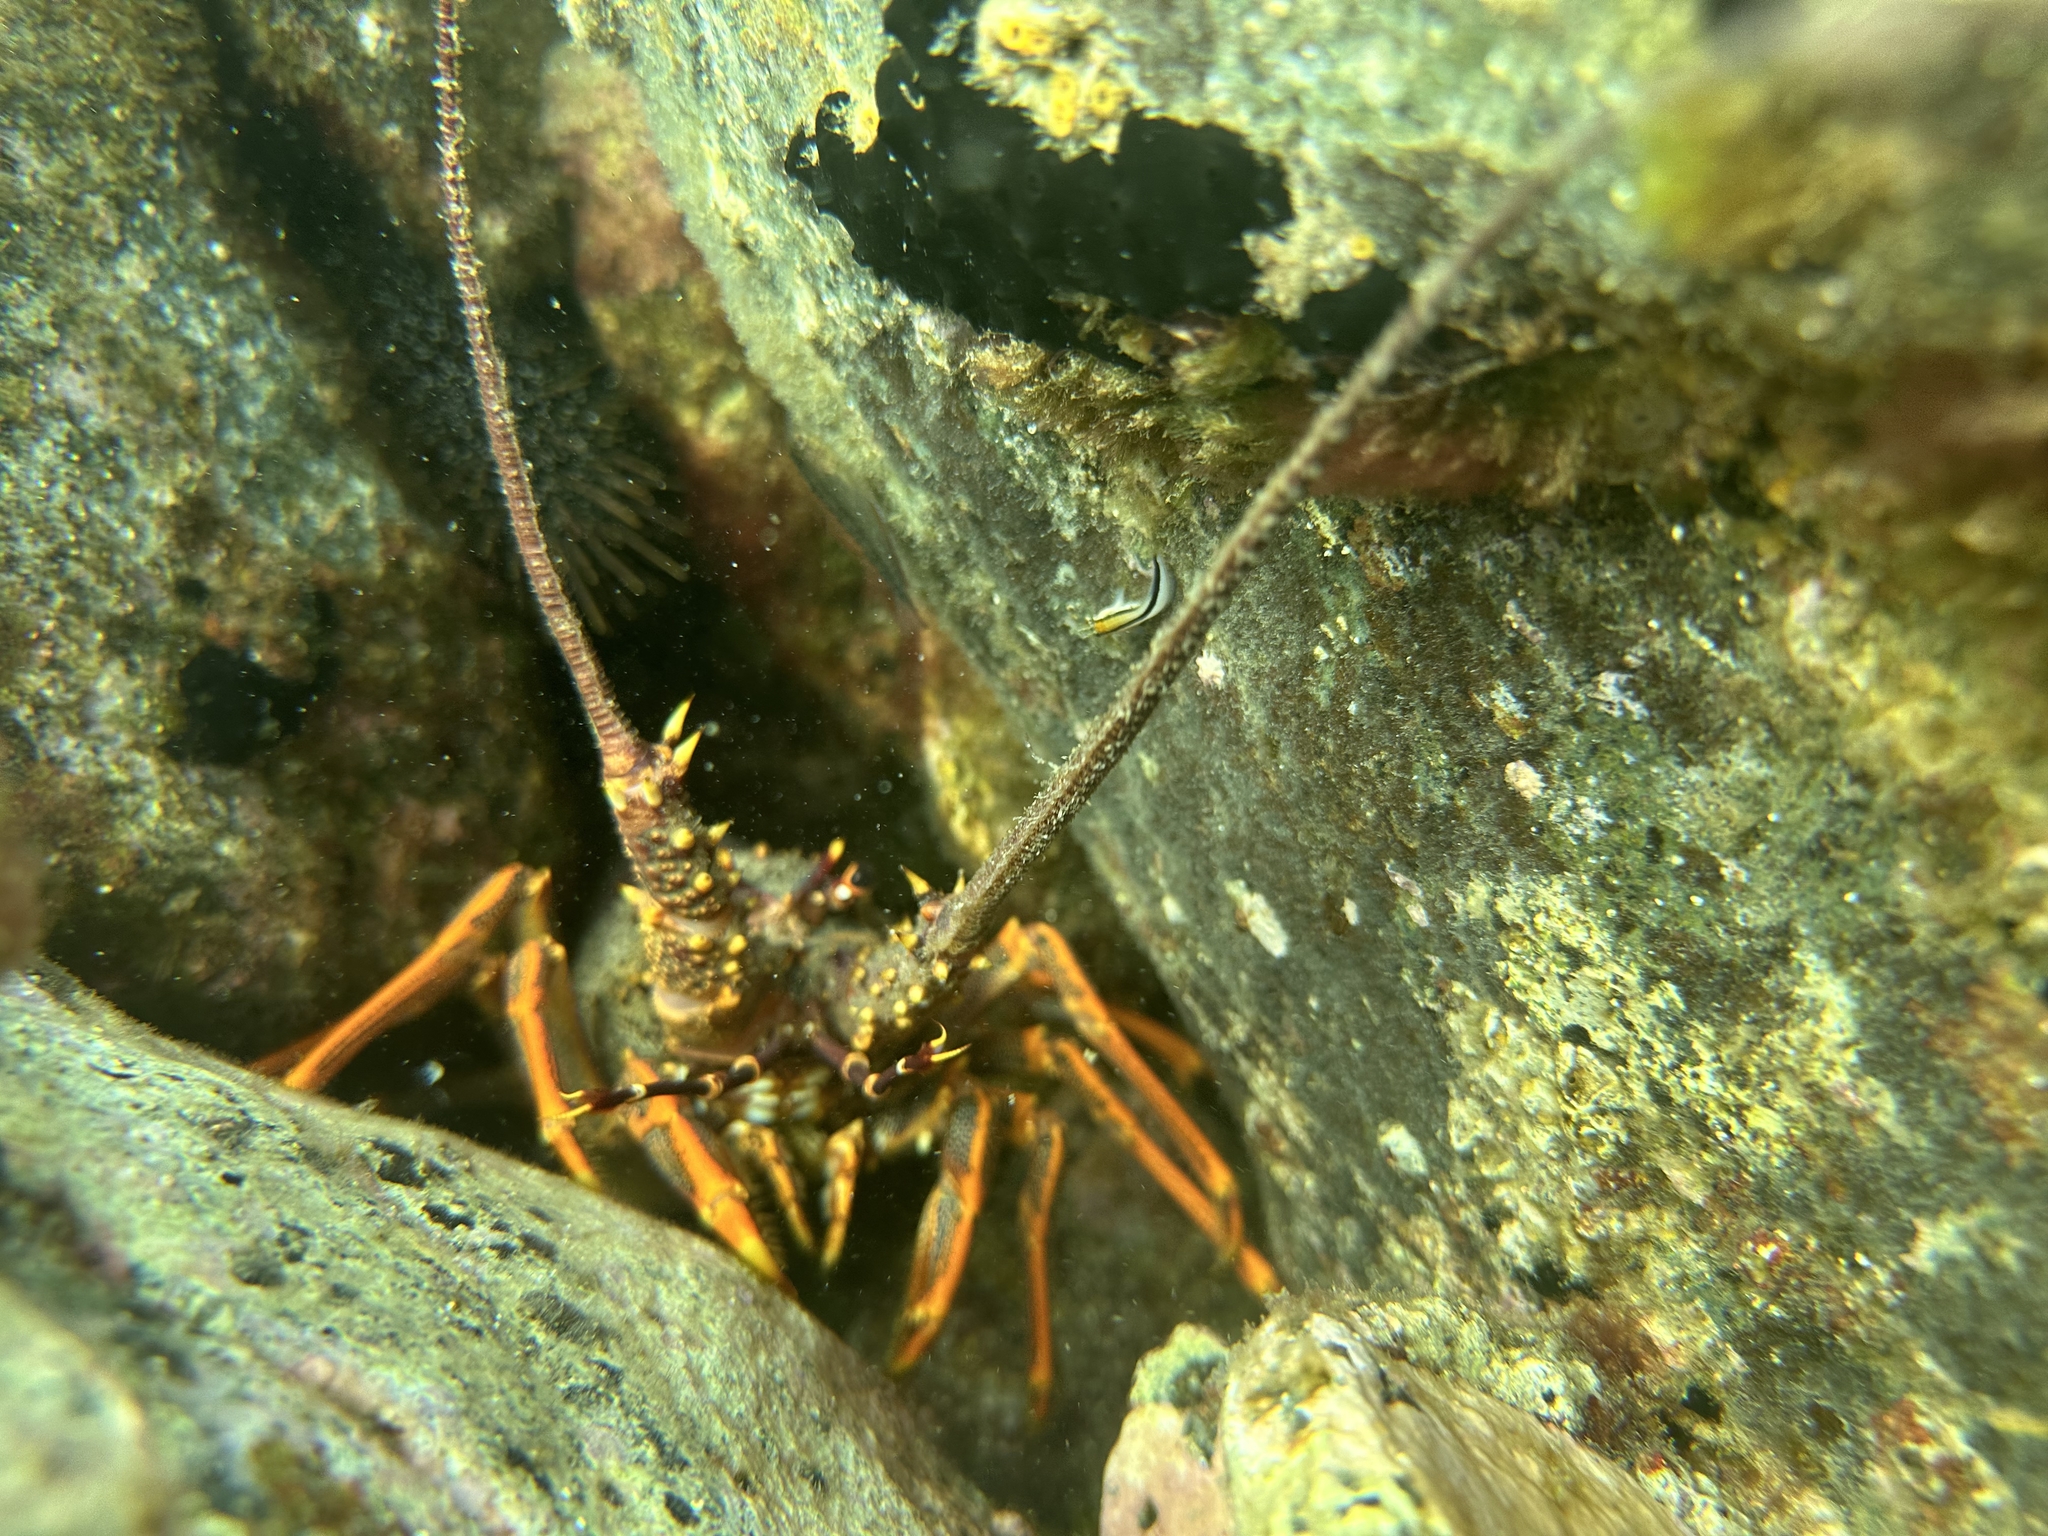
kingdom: Animalia
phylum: Arthropoda
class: Malacostraca
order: Decapoda
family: Palinuridae
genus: Jasus
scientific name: Jasus edwardsii
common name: Red rock lobster
